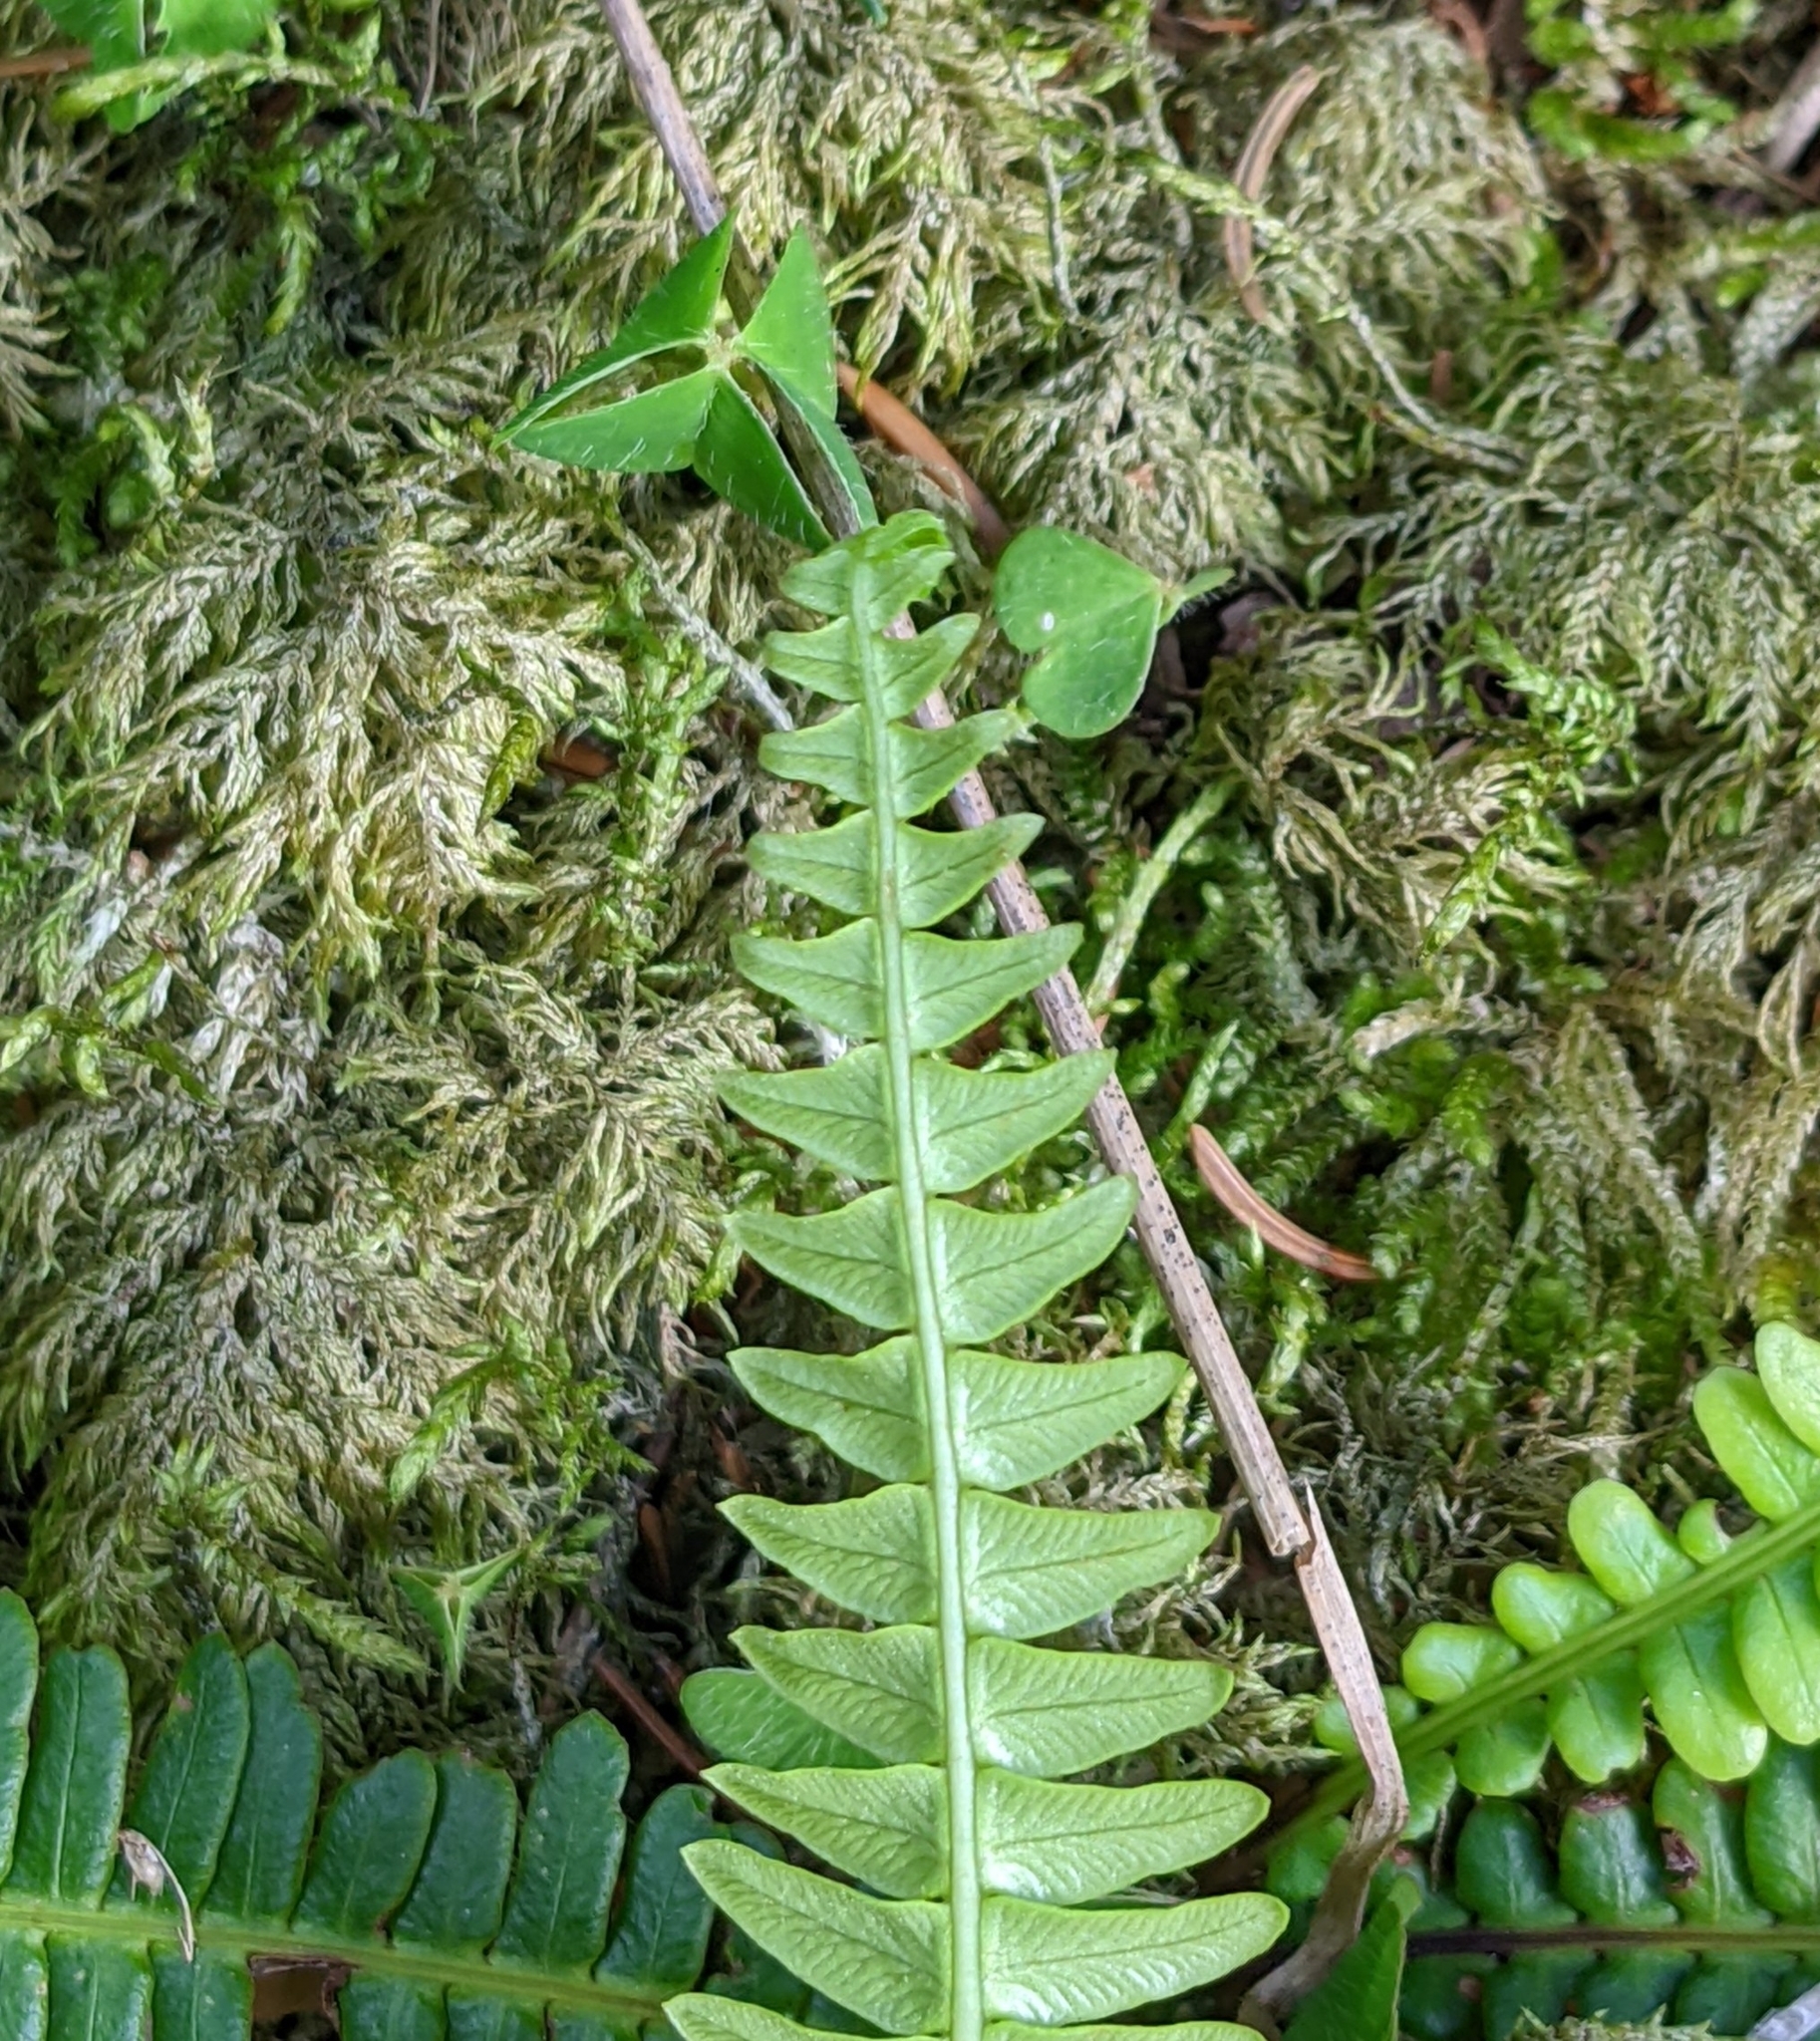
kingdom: Plantae
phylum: Tracheophyta
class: Polypodiopsida
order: Polypodiales
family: Blechnaceae
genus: Struthiopteris
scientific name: Struthiopteris spicant
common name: Deer fern
